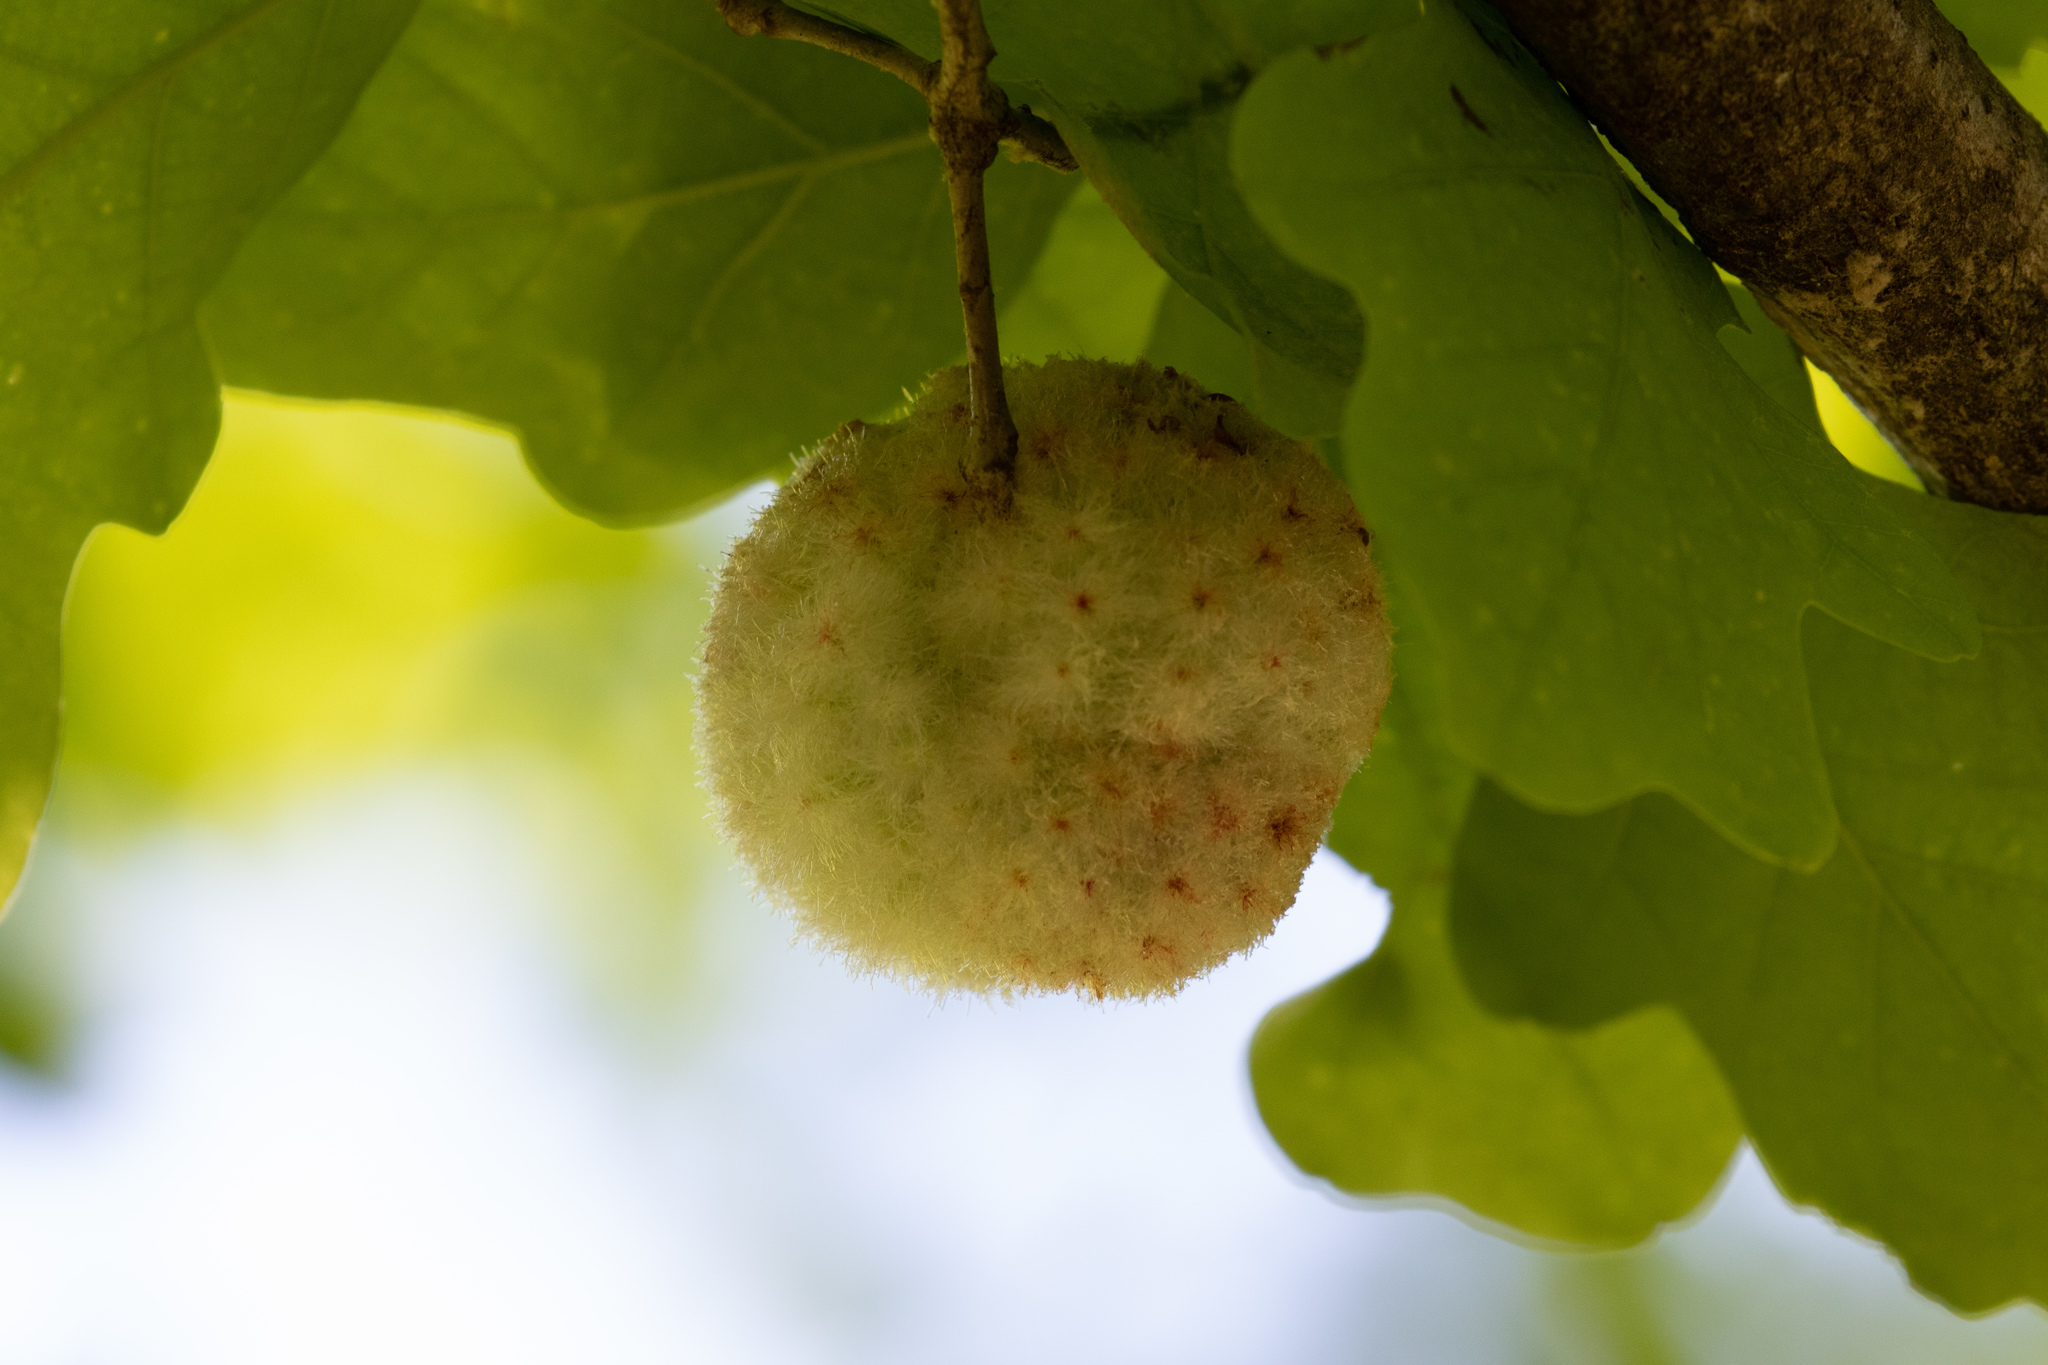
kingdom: Animalia
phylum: Arthropoda
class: Insecta
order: Hymenoptera
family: Cynipidae
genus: Callirhytis
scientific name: Callirhytis
